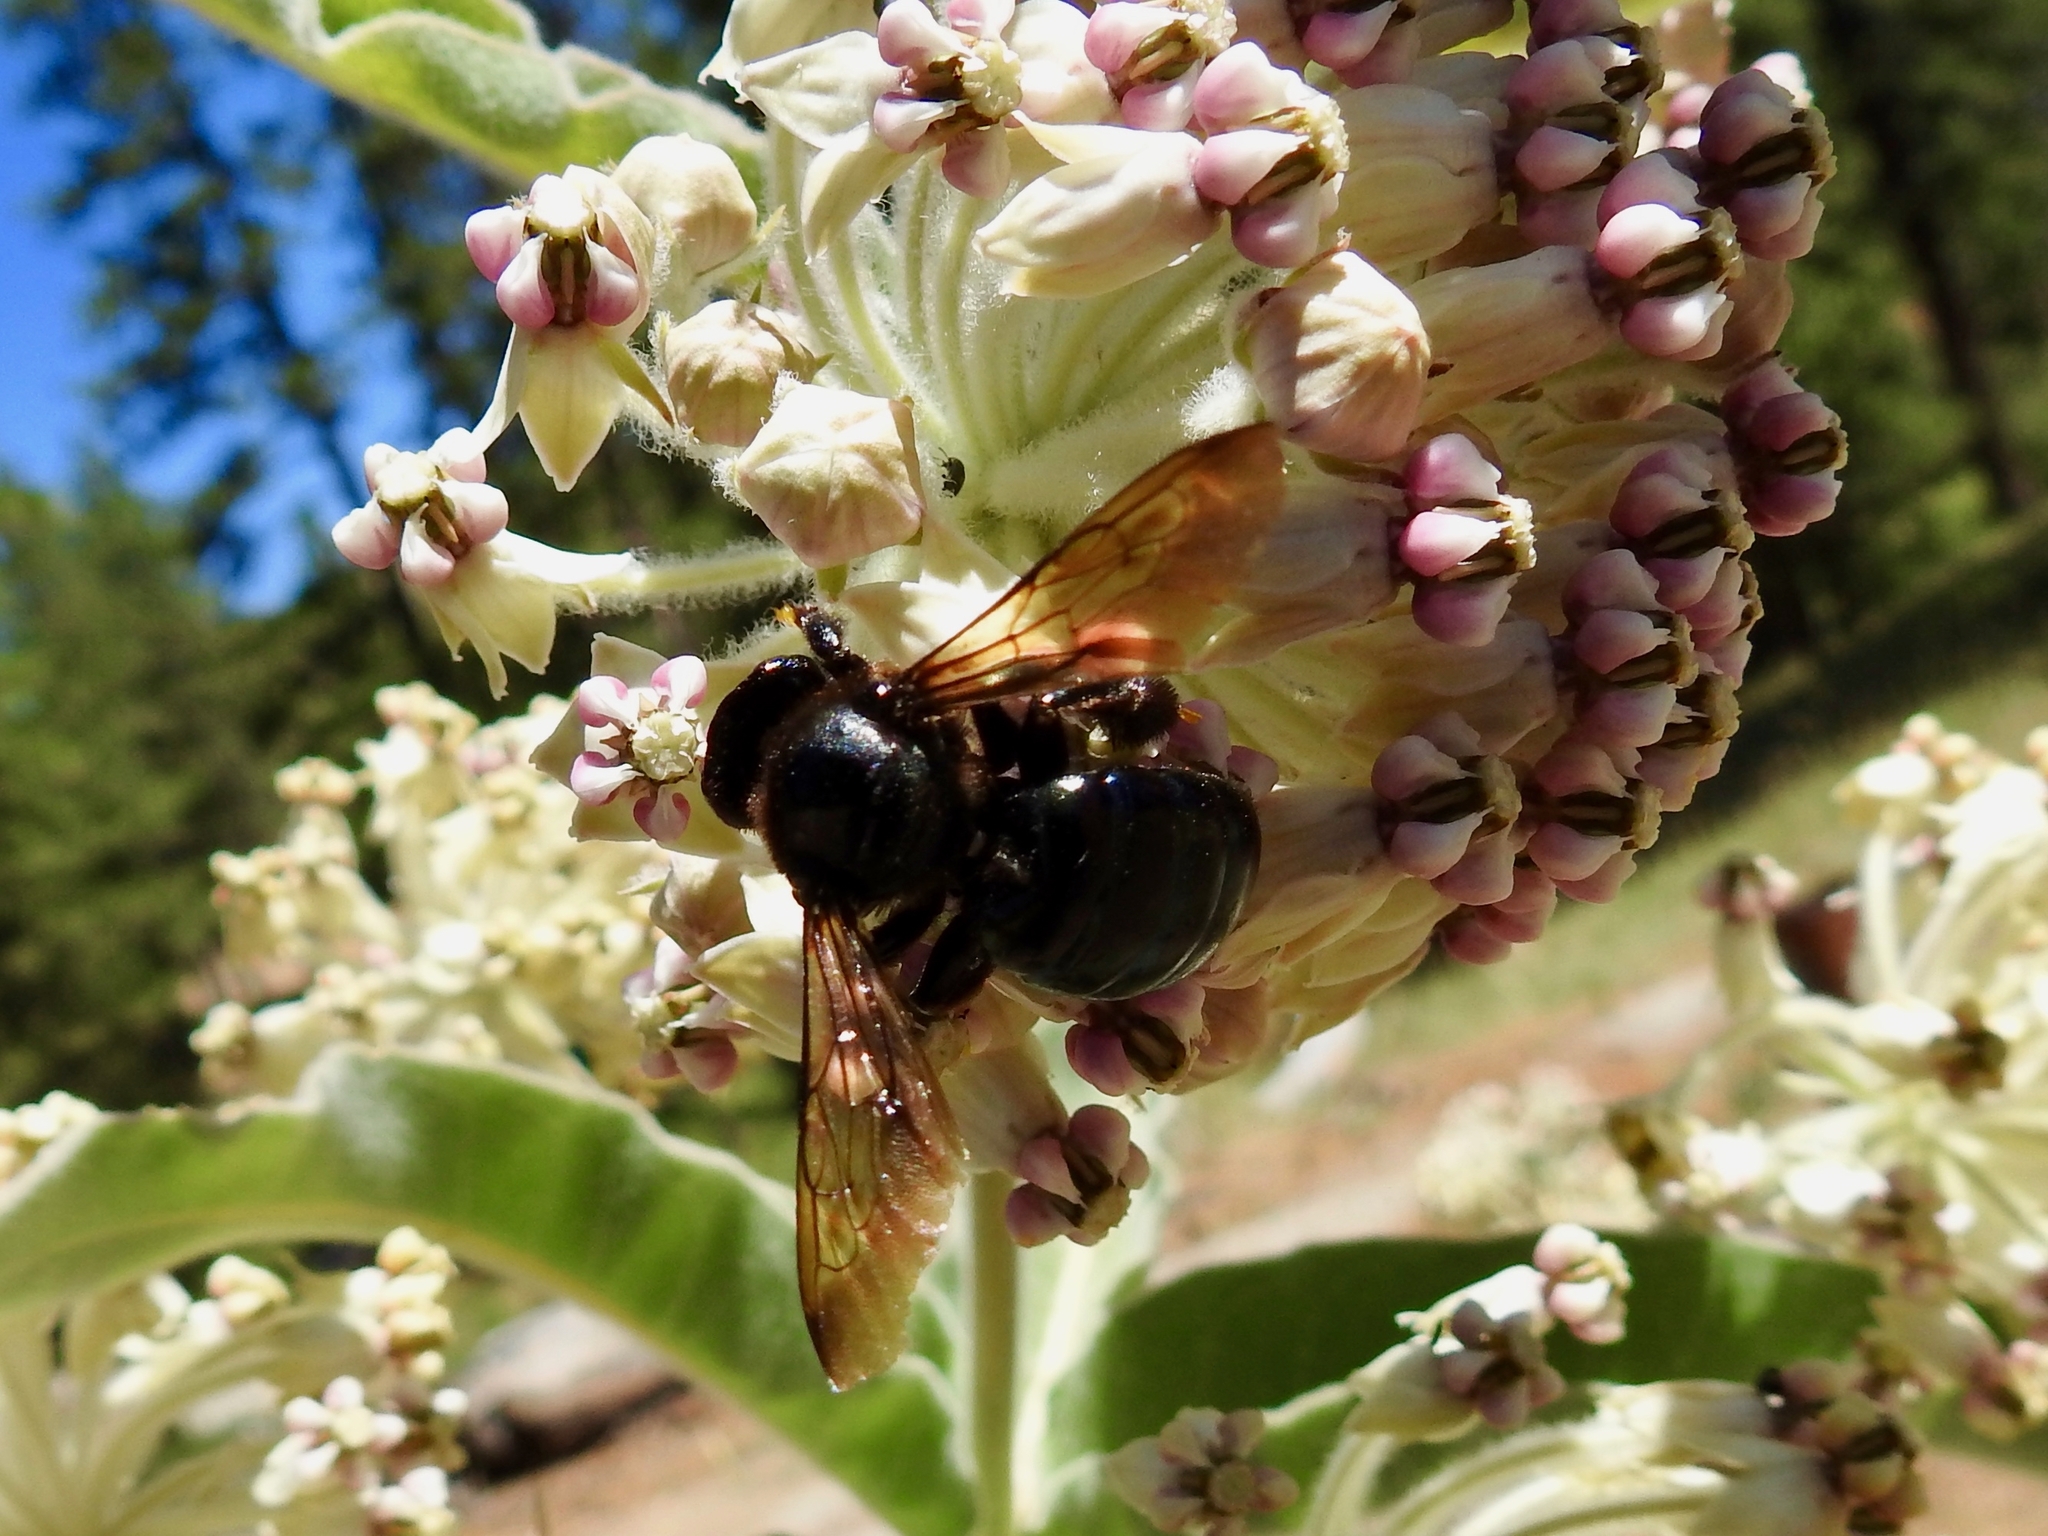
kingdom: Animalia
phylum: Arthropoda
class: Insecta
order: Hymenoptera
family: Apidae
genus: Xylocopa
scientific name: Xylocopa californica
